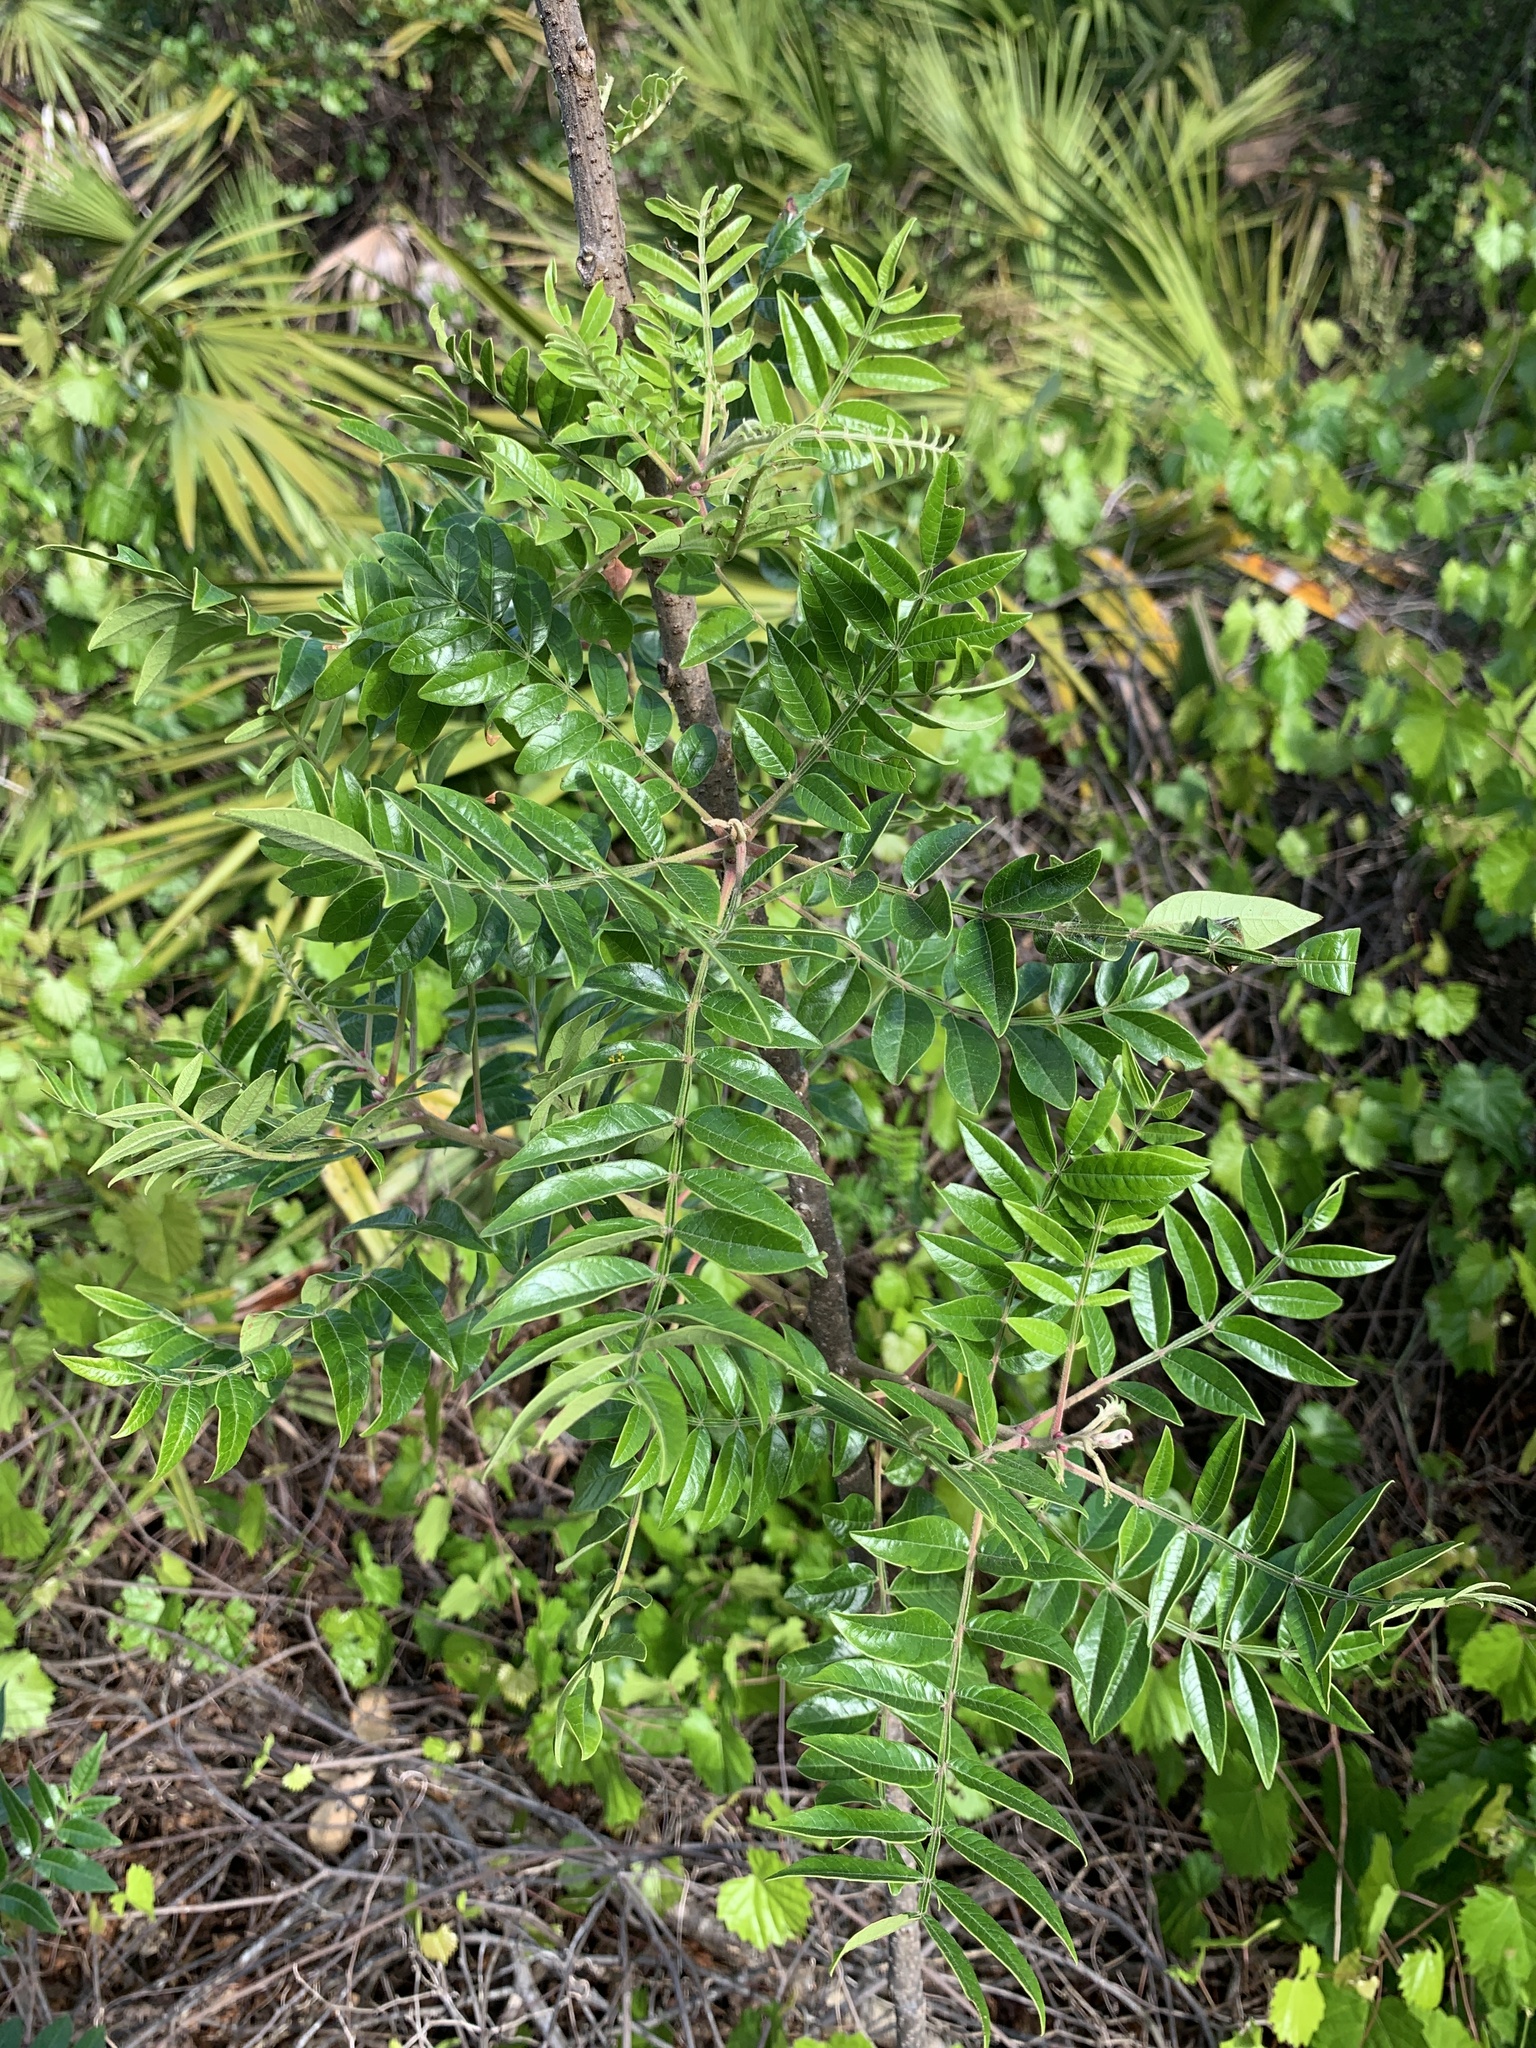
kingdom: Plantae
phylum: Tracheophyta
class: Magnoliopsida
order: Sapindales
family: Anacardiaceae
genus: Rhus
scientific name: Rhus copallina
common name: Shining sumac
